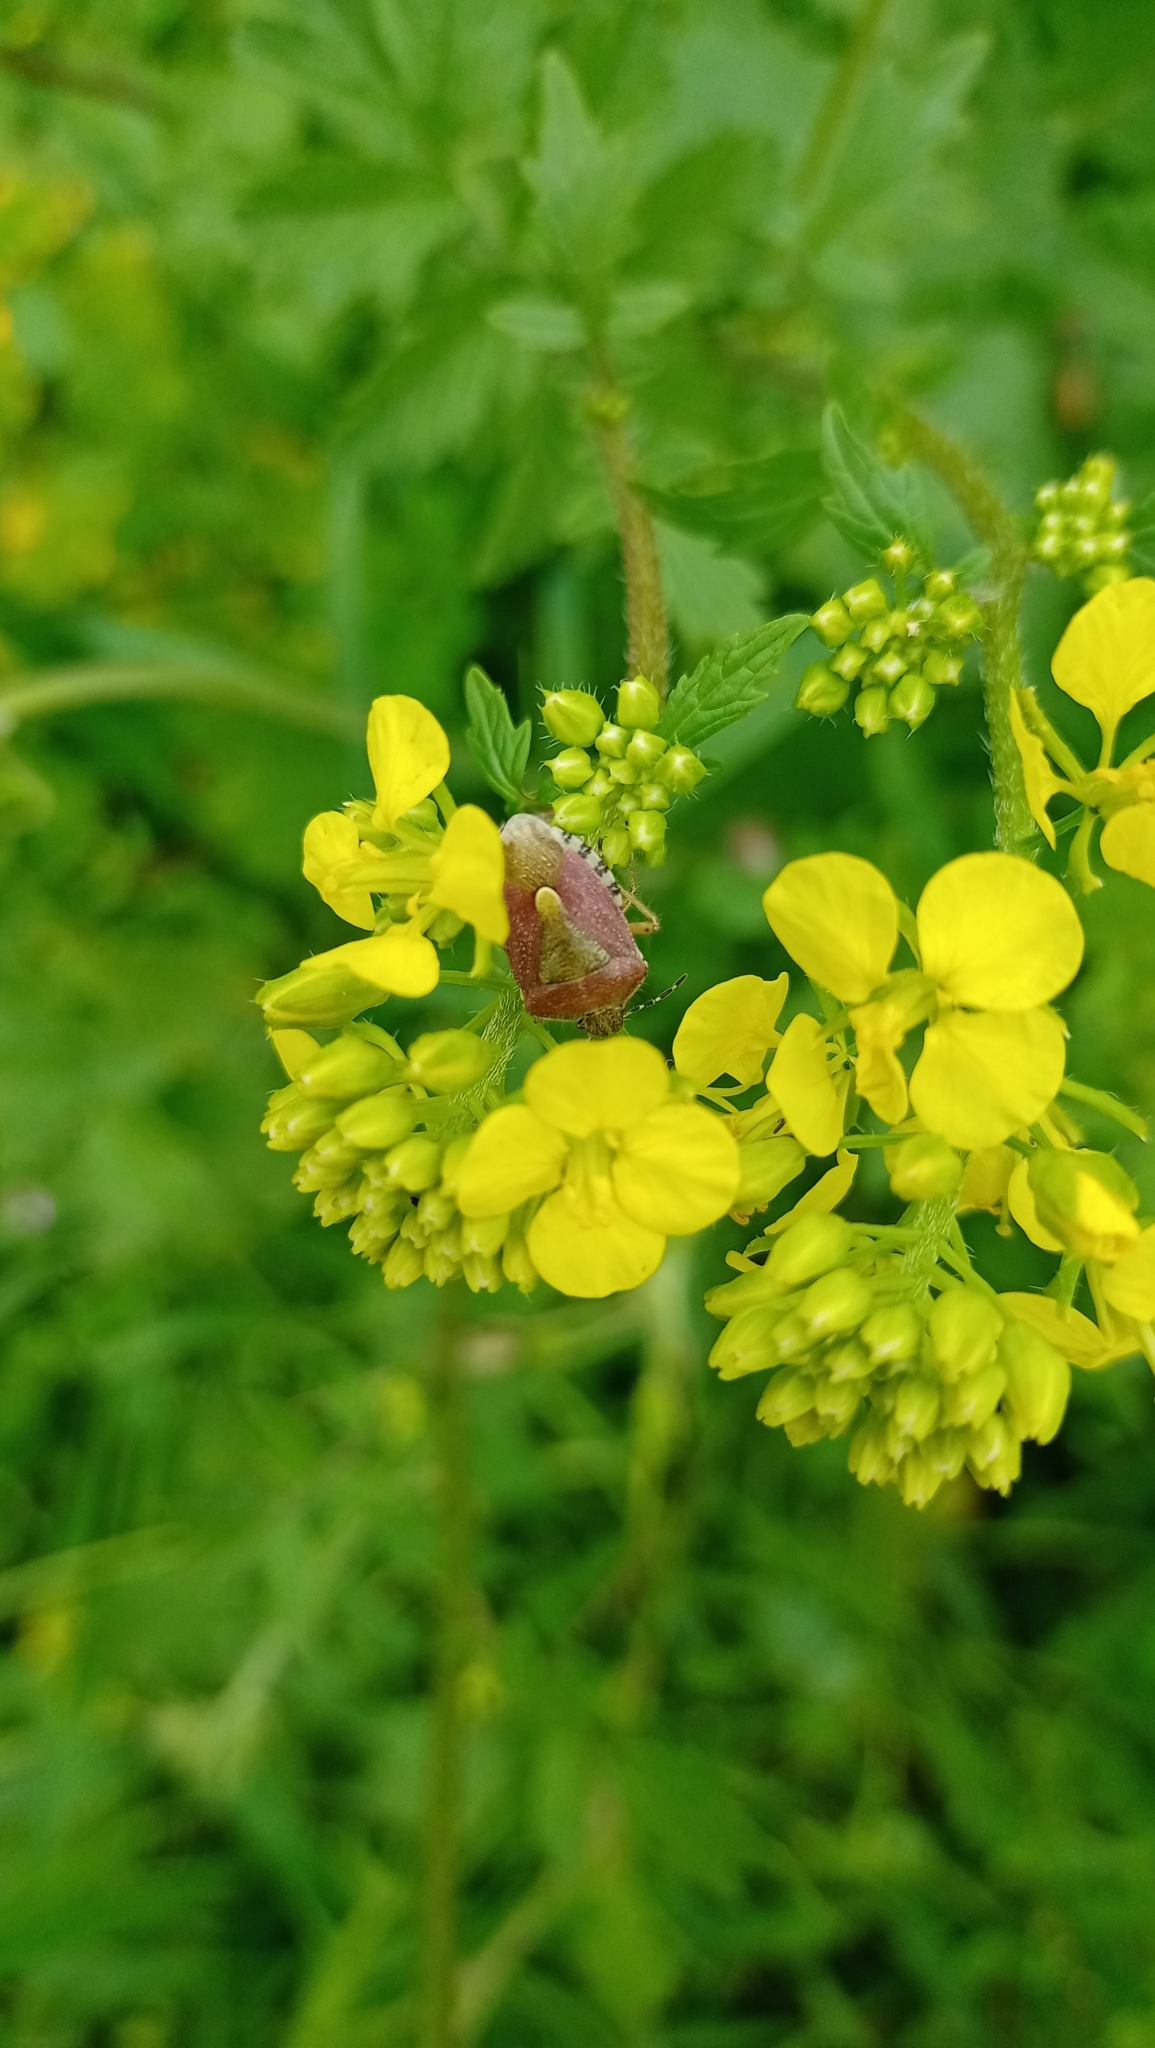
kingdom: Animalia
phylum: Arthropoda
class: Insecta
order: Hemiptera
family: Pentatomidae
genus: Dolycoris
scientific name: Dolycoris baccarum
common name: Sloe bug
